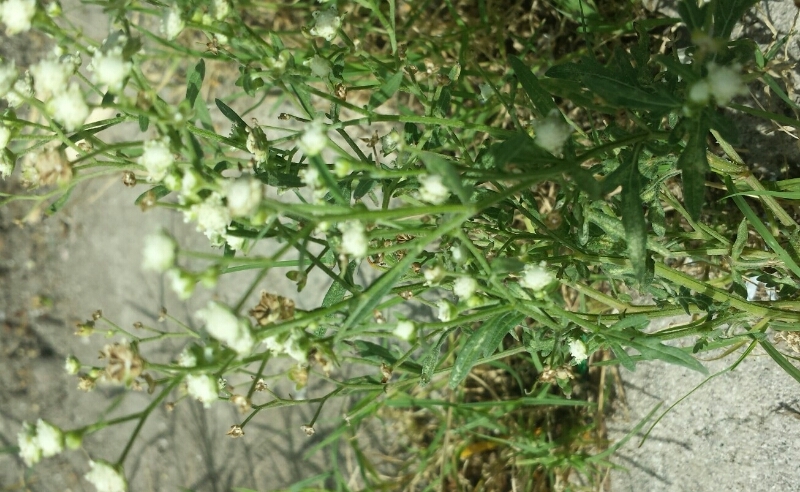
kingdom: Plantae
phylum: Tracheophyta
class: Magnoliopsida
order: Asterales
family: Asteraceae
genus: Parthenium
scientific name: Parthenium hysterophorus
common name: Santa maria feverfew
